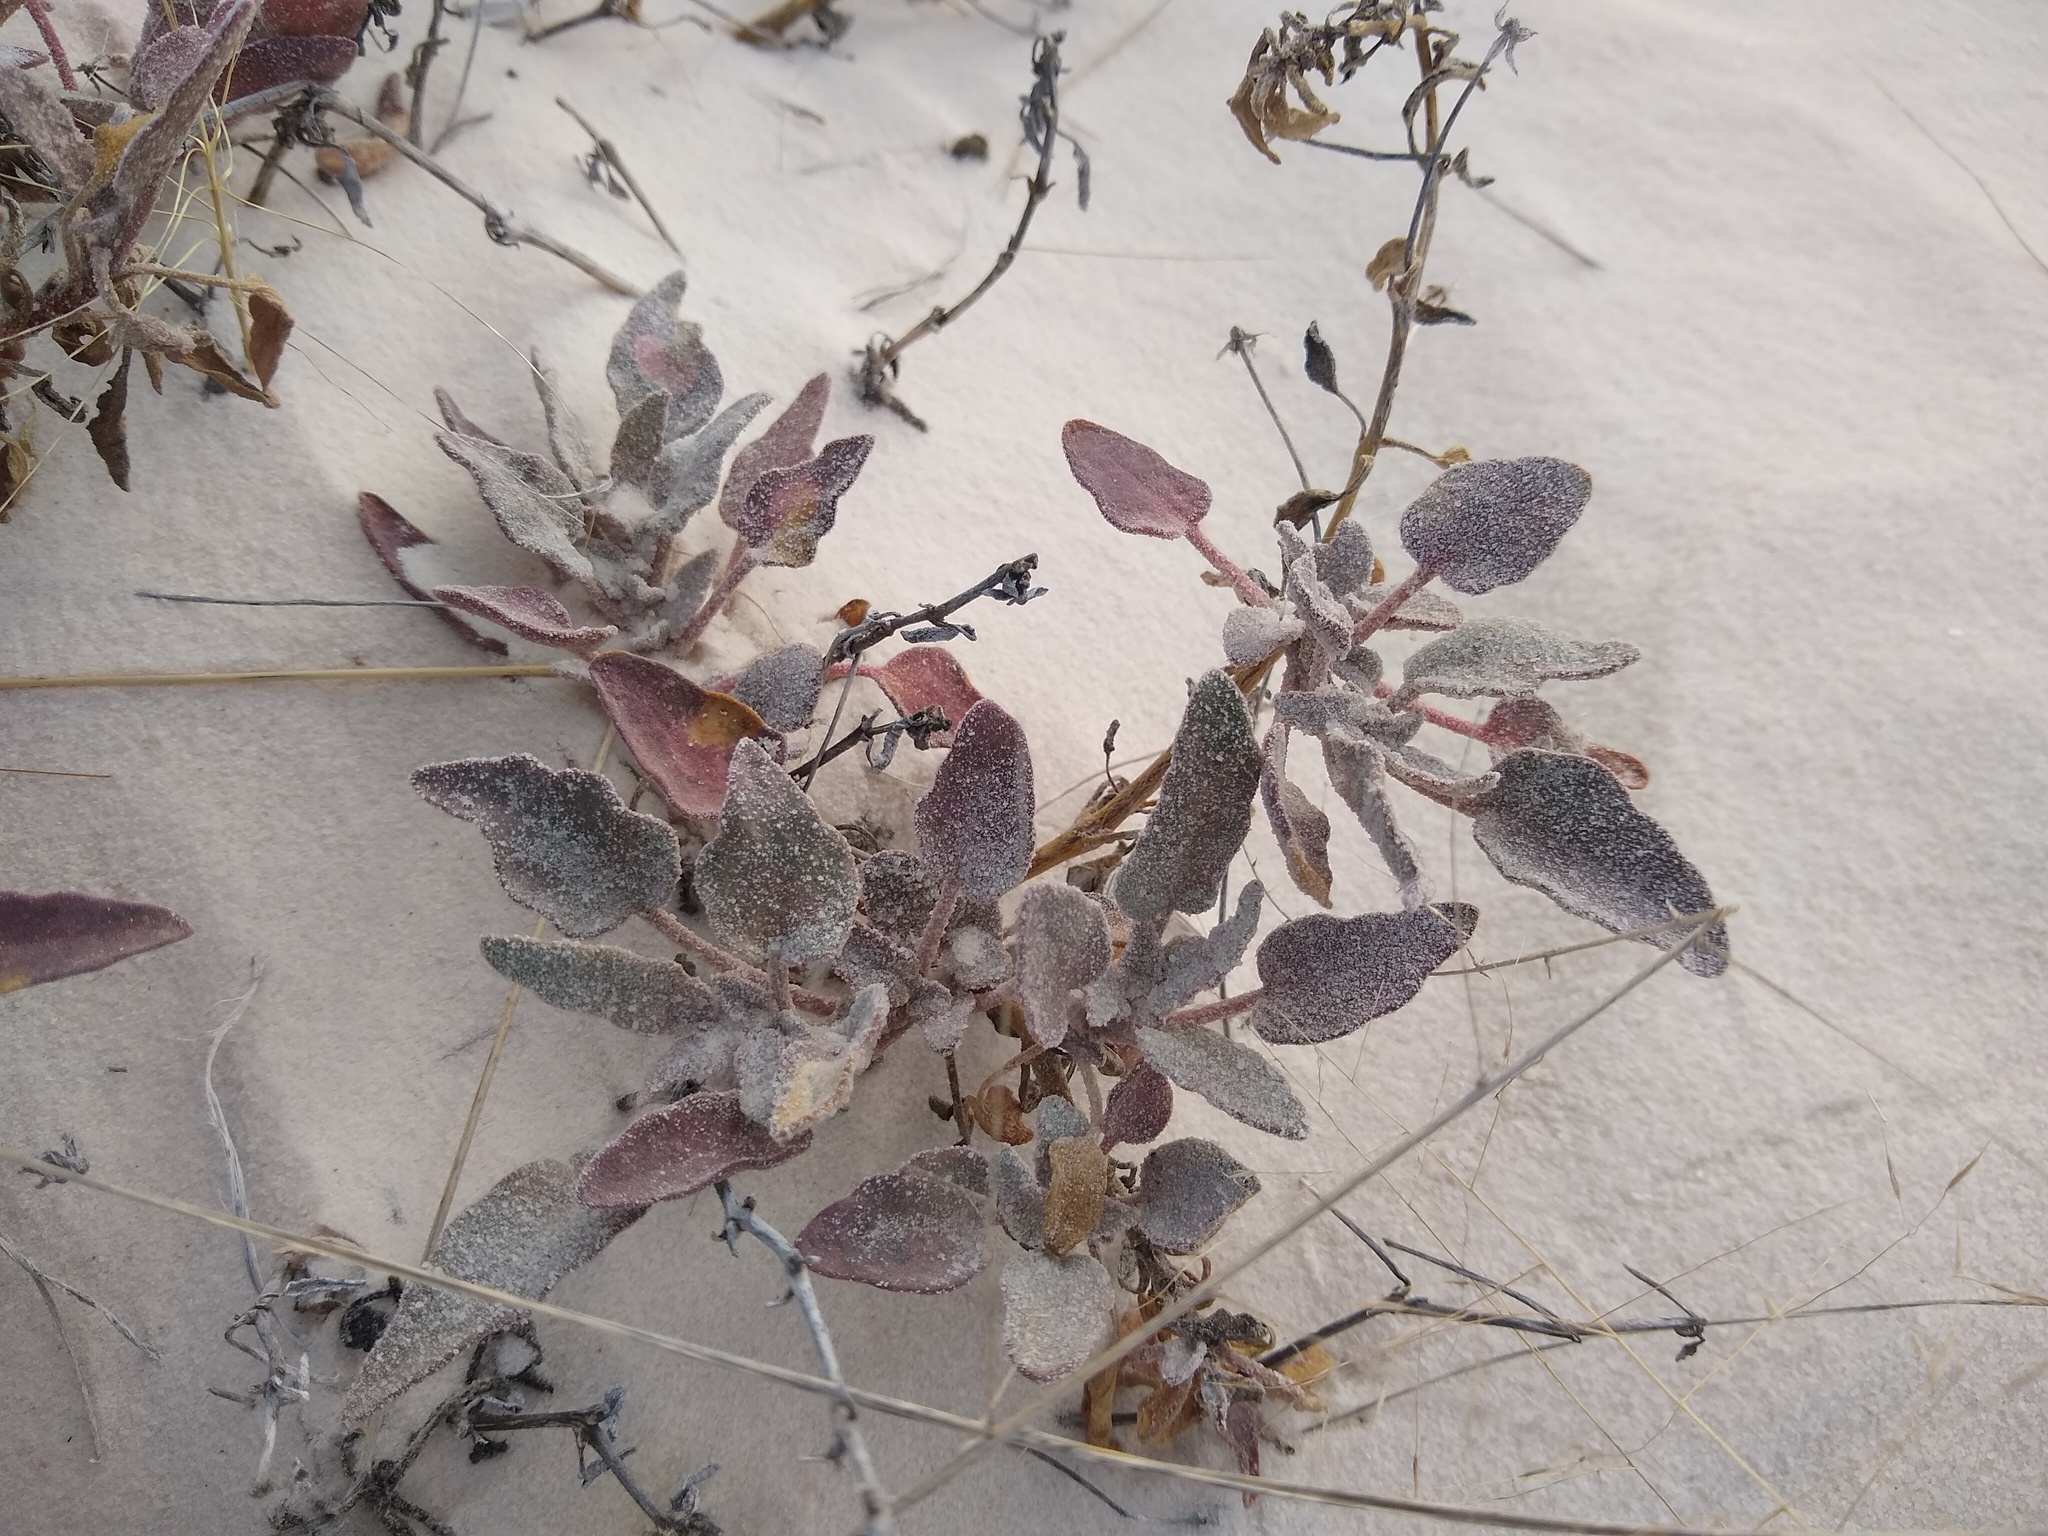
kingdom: Plantae
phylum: Tracheophyta
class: Magnoliopsida
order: Caryophyllales
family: Nyctaginaceae
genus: Abronia
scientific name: Abronia angustifolia
